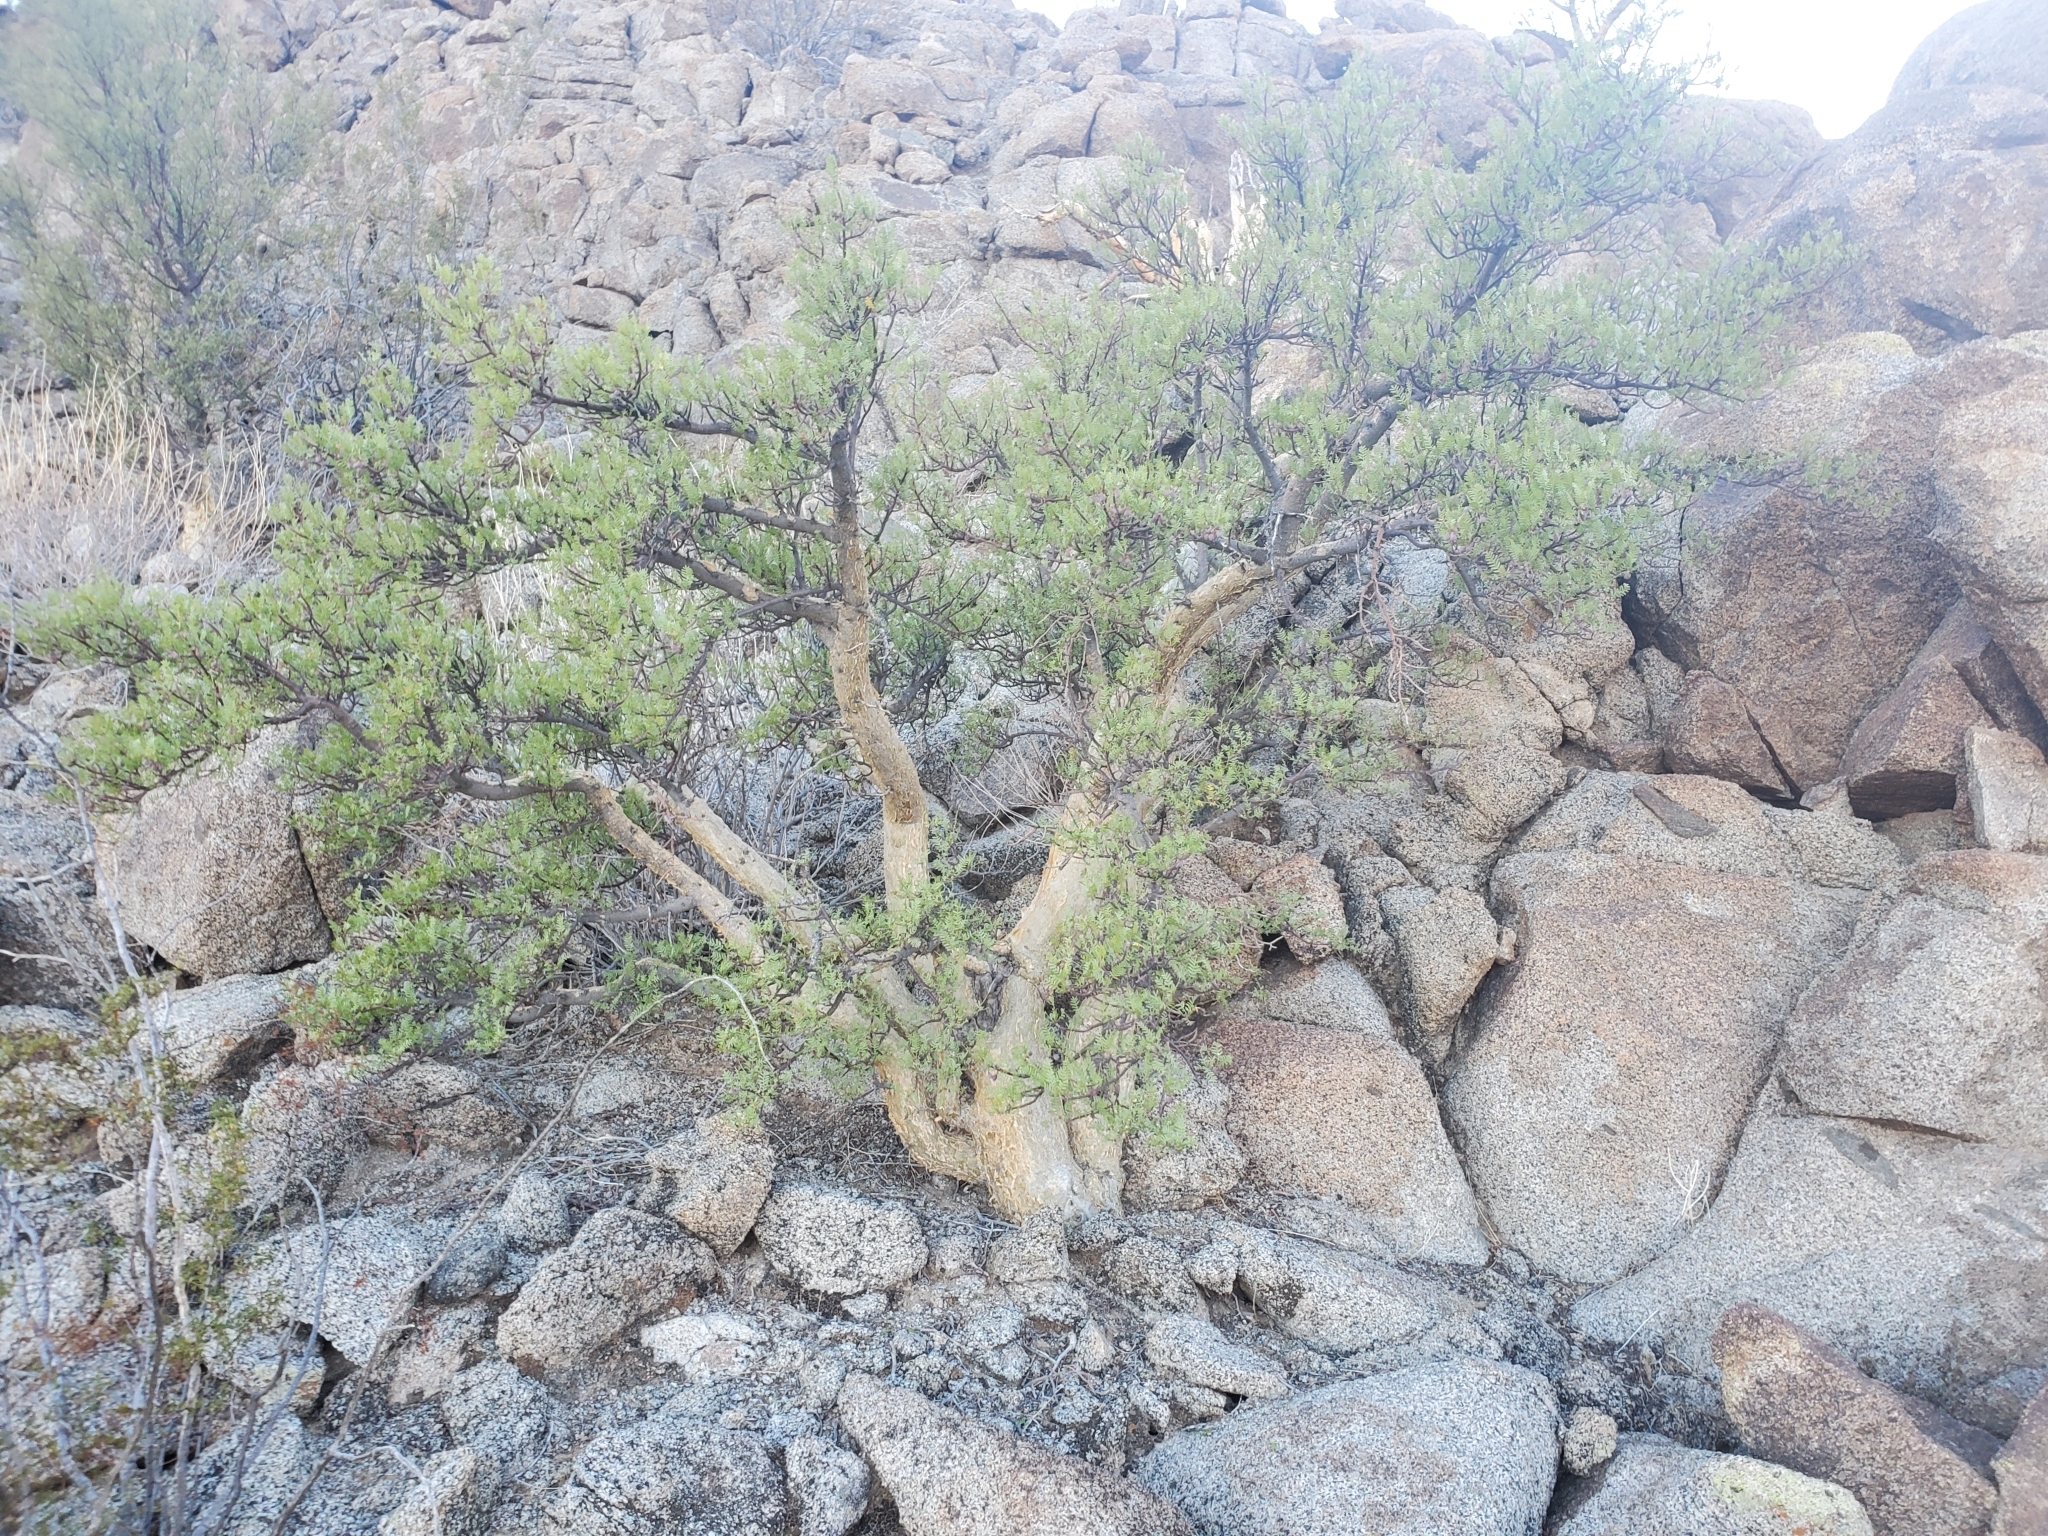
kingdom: Plantae
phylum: Tracheophyta
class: Magnoliopsida
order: Sapindales
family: Burseraceae
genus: Bursera
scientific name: Bursera microphylla
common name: Elephant tree
